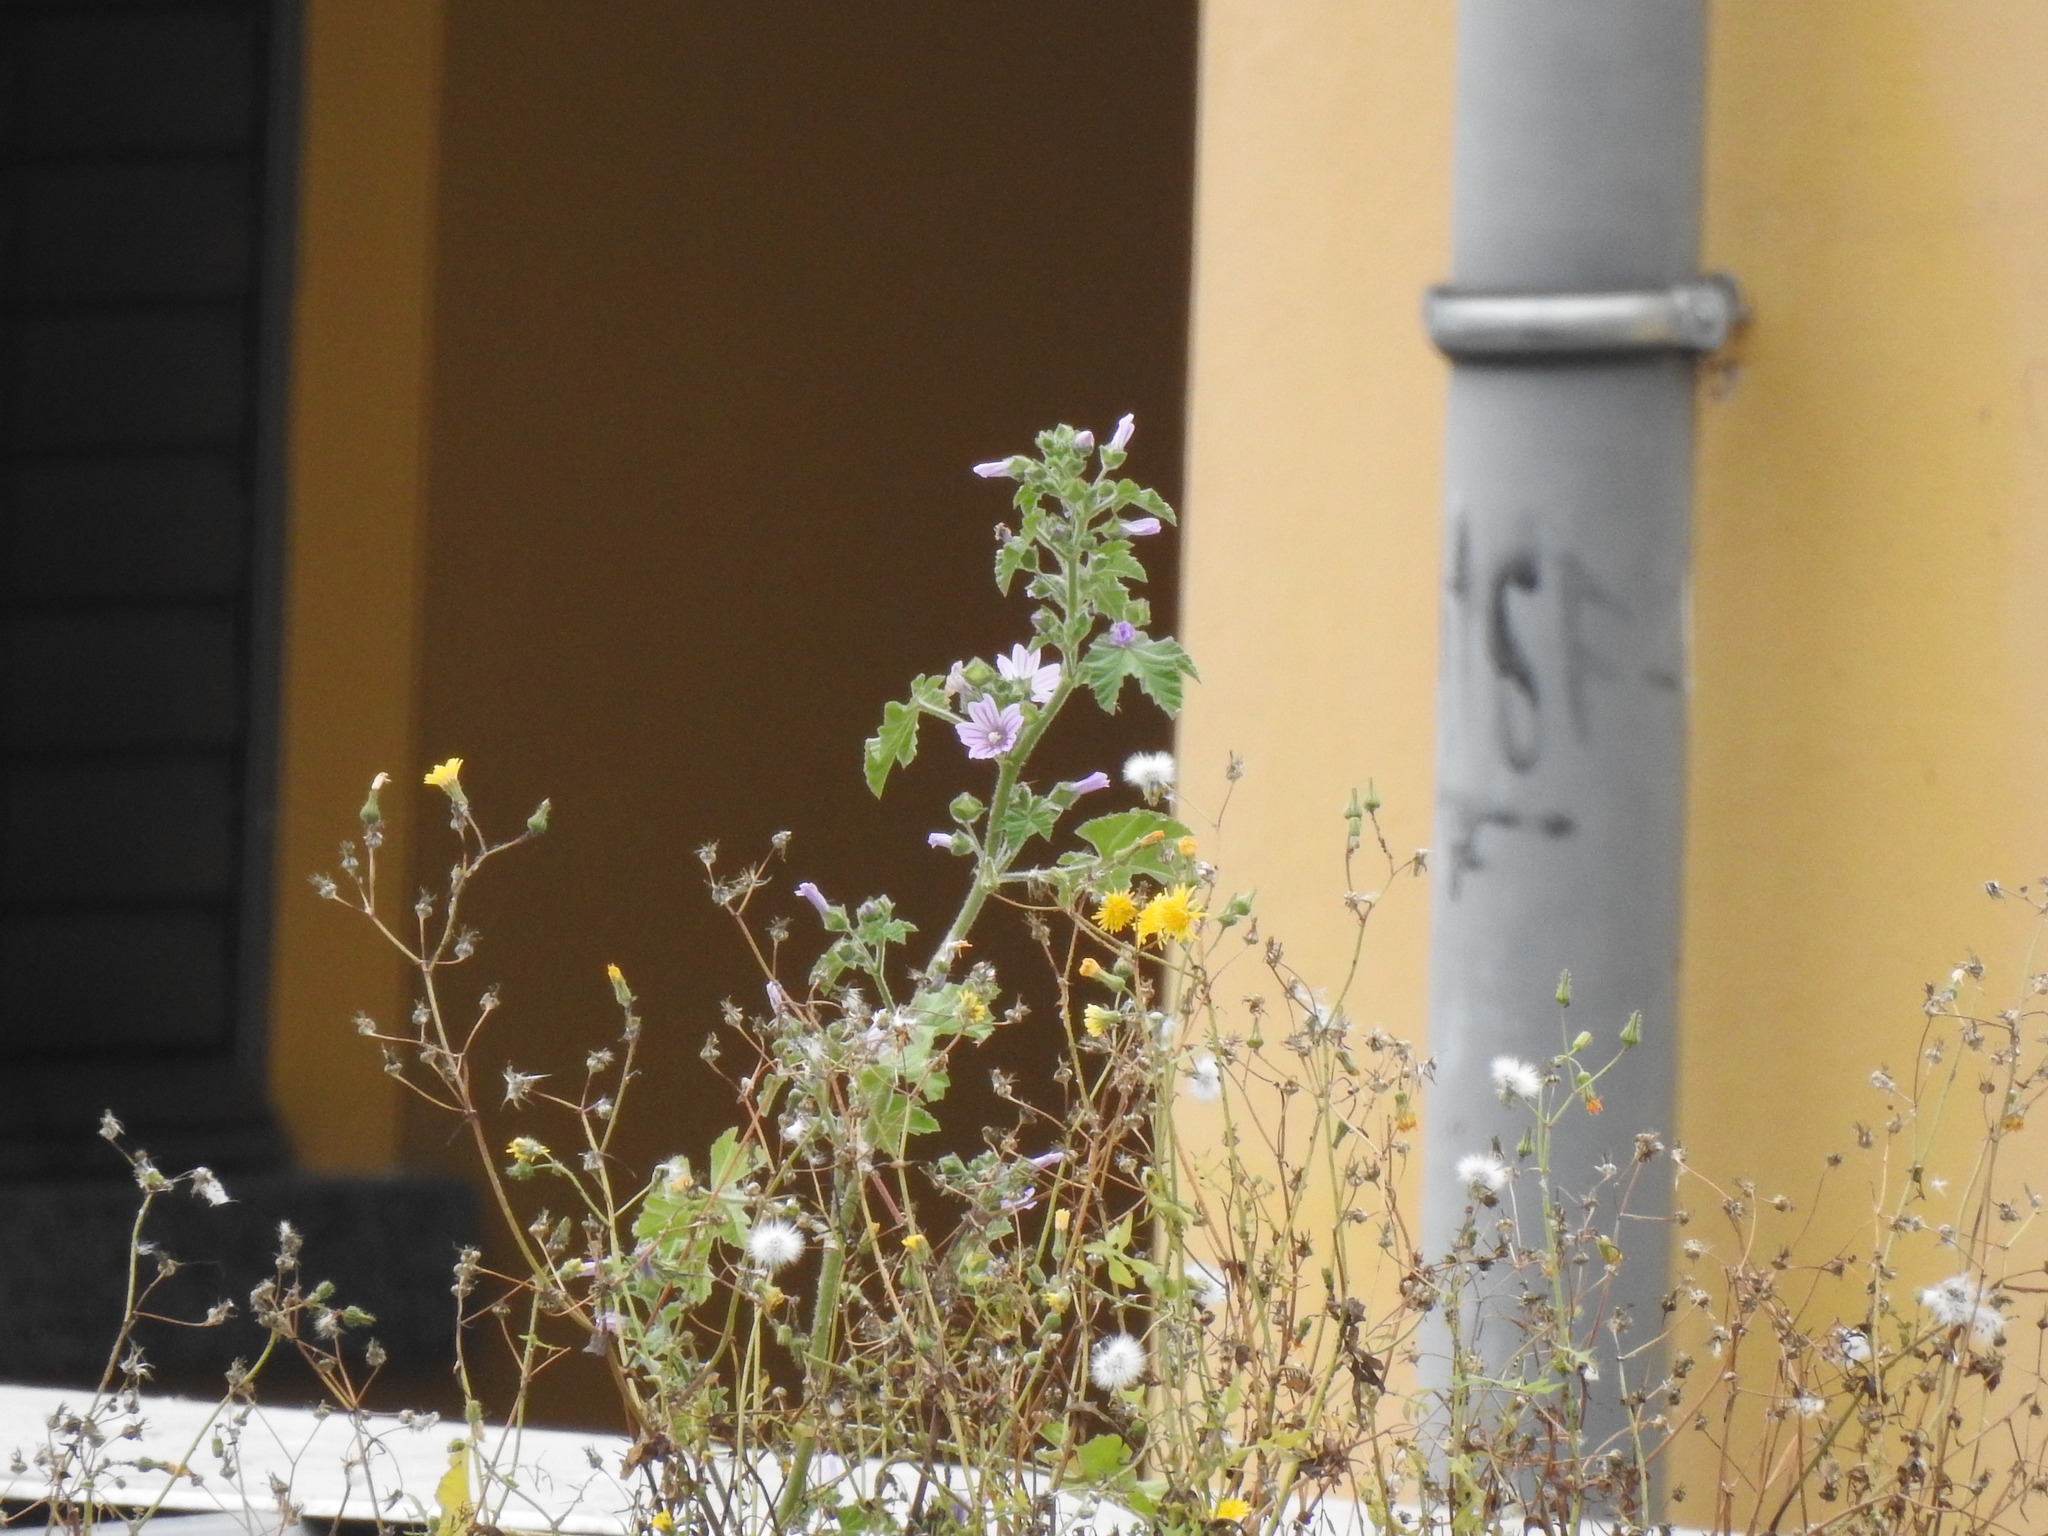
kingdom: Plantae
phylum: Tracheophyta
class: Magnoliopsida
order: Malvales
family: Malvaceae
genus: Malva
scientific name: Malva multiflora
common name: Cheeseweed
